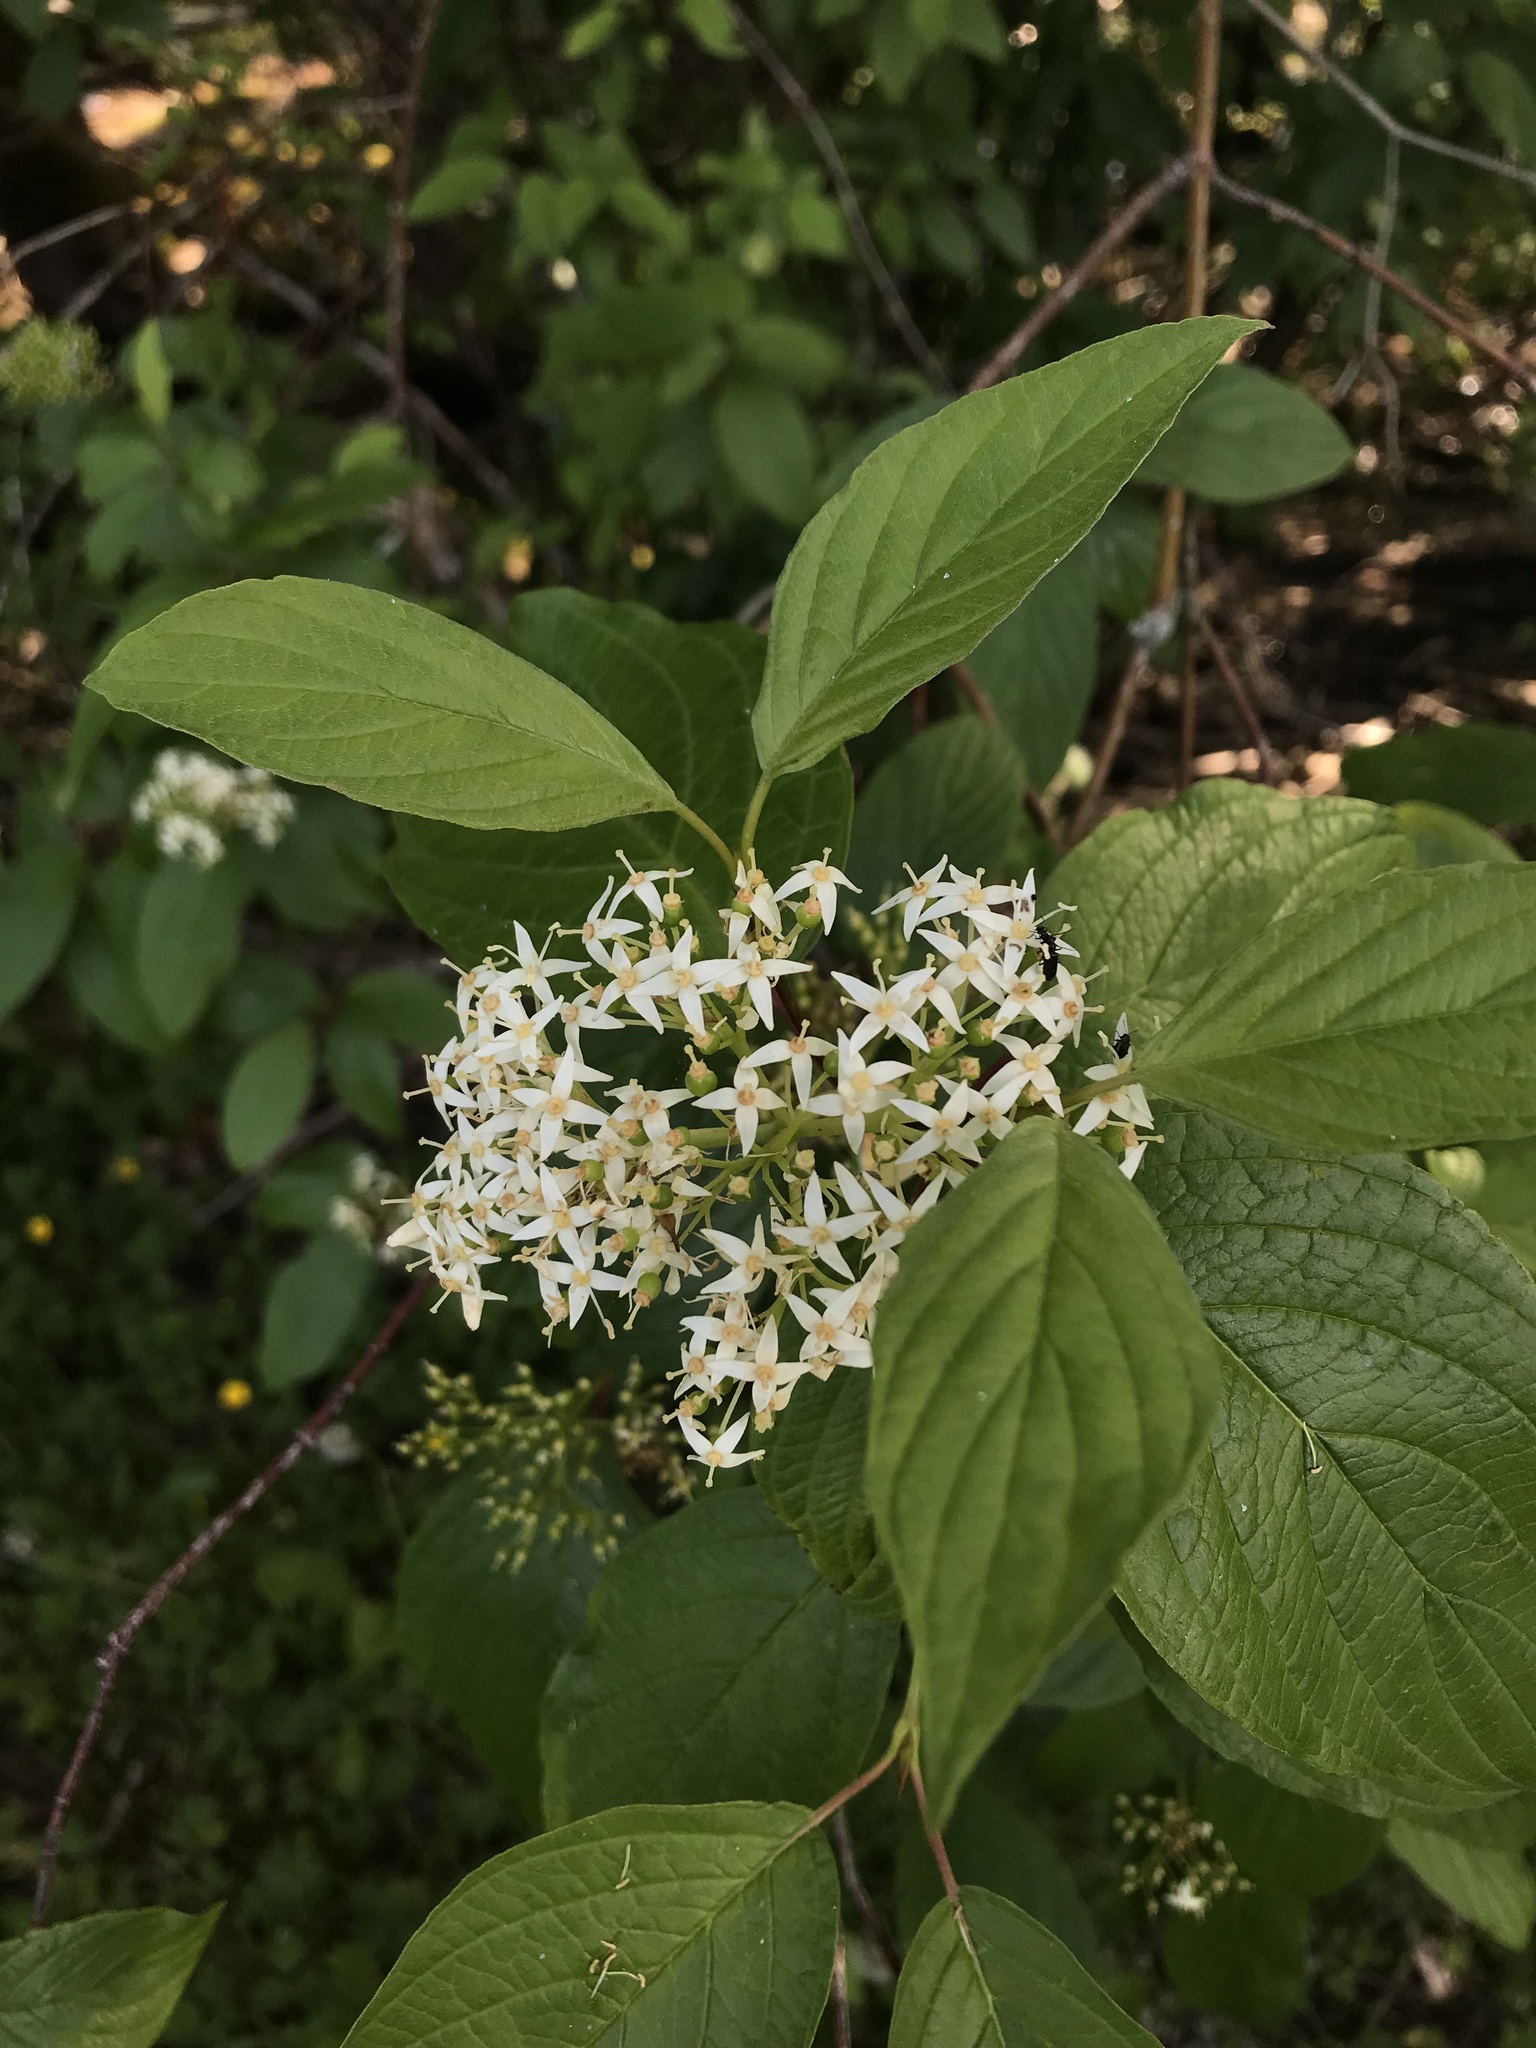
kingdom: Plantae
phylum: Tracheophyta
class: Magnoliopsida
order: Cornales
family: Cornaceae
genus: Cornus
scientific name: Cornus sericea
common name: Red-osier dogwood
